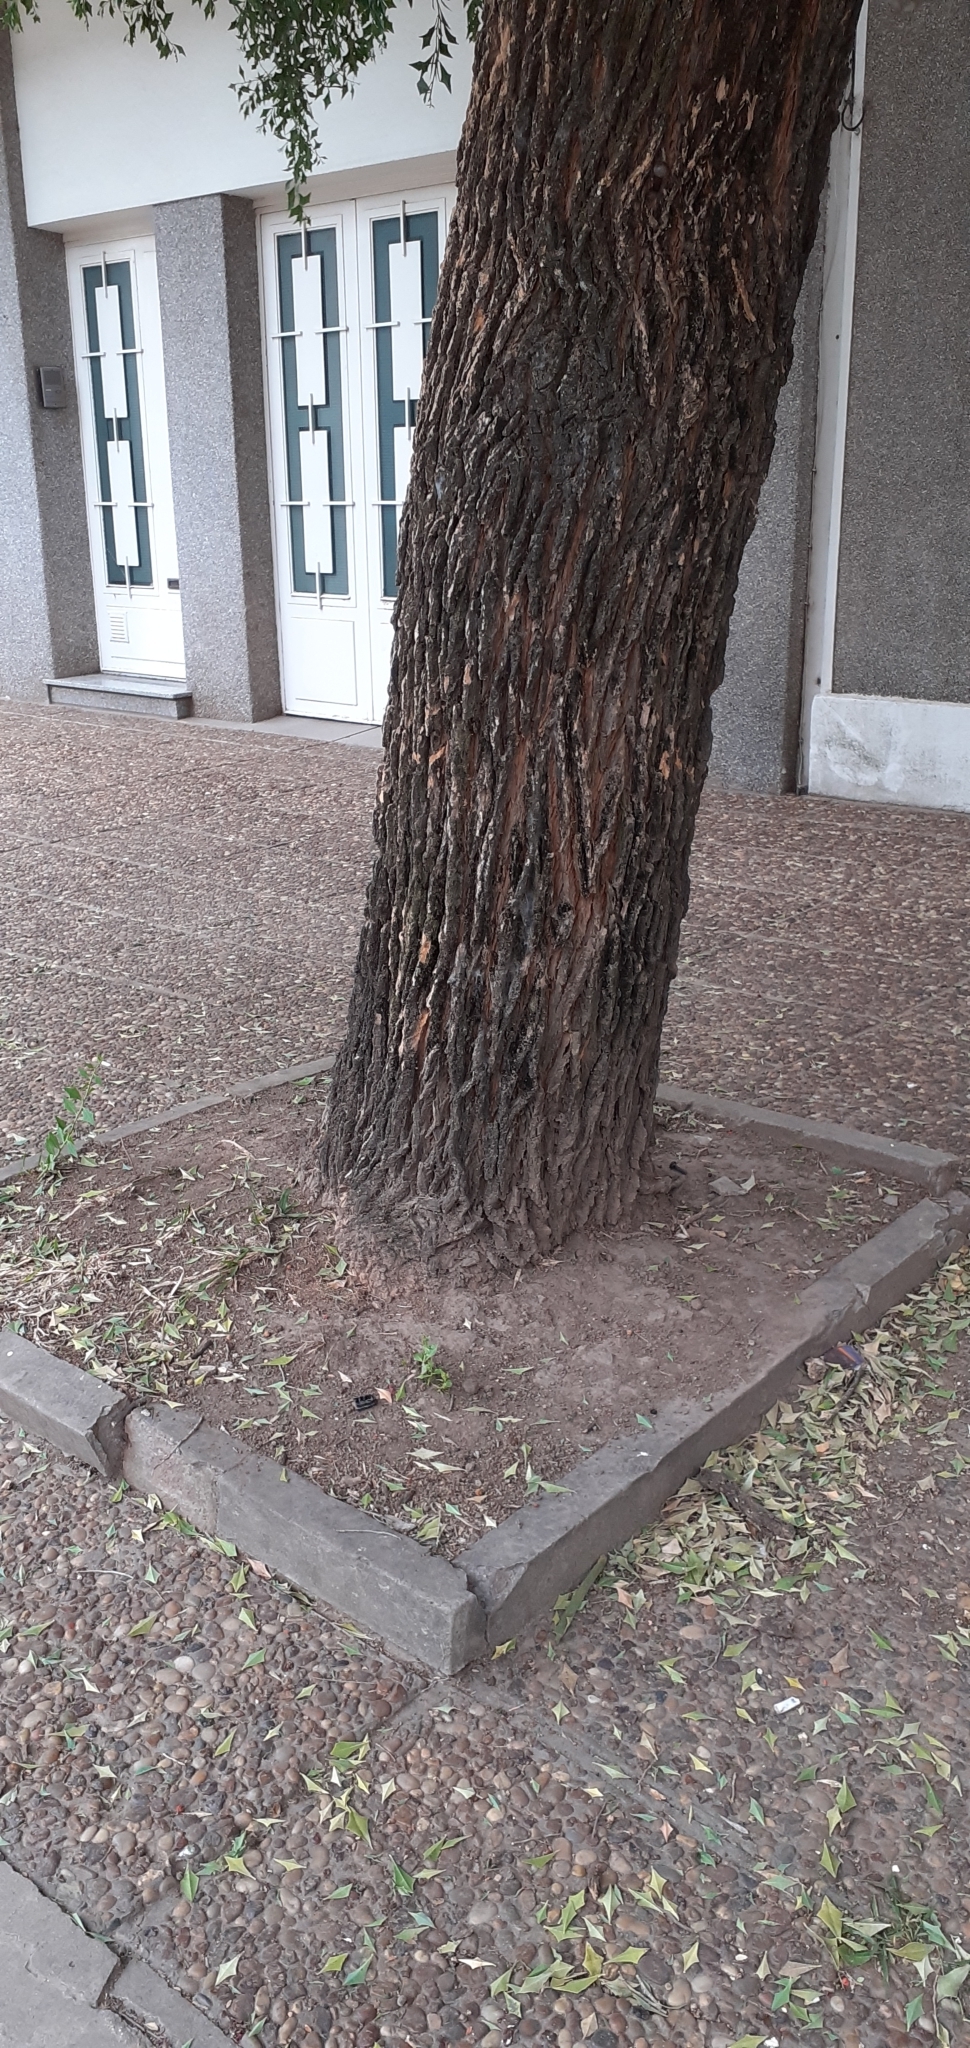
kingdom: Plantae
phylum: Tracheophyta
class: Magnoliopsida
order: Santalales
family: Cervantesiaceae
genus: Jodina
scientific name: Jodina rhombifolia
